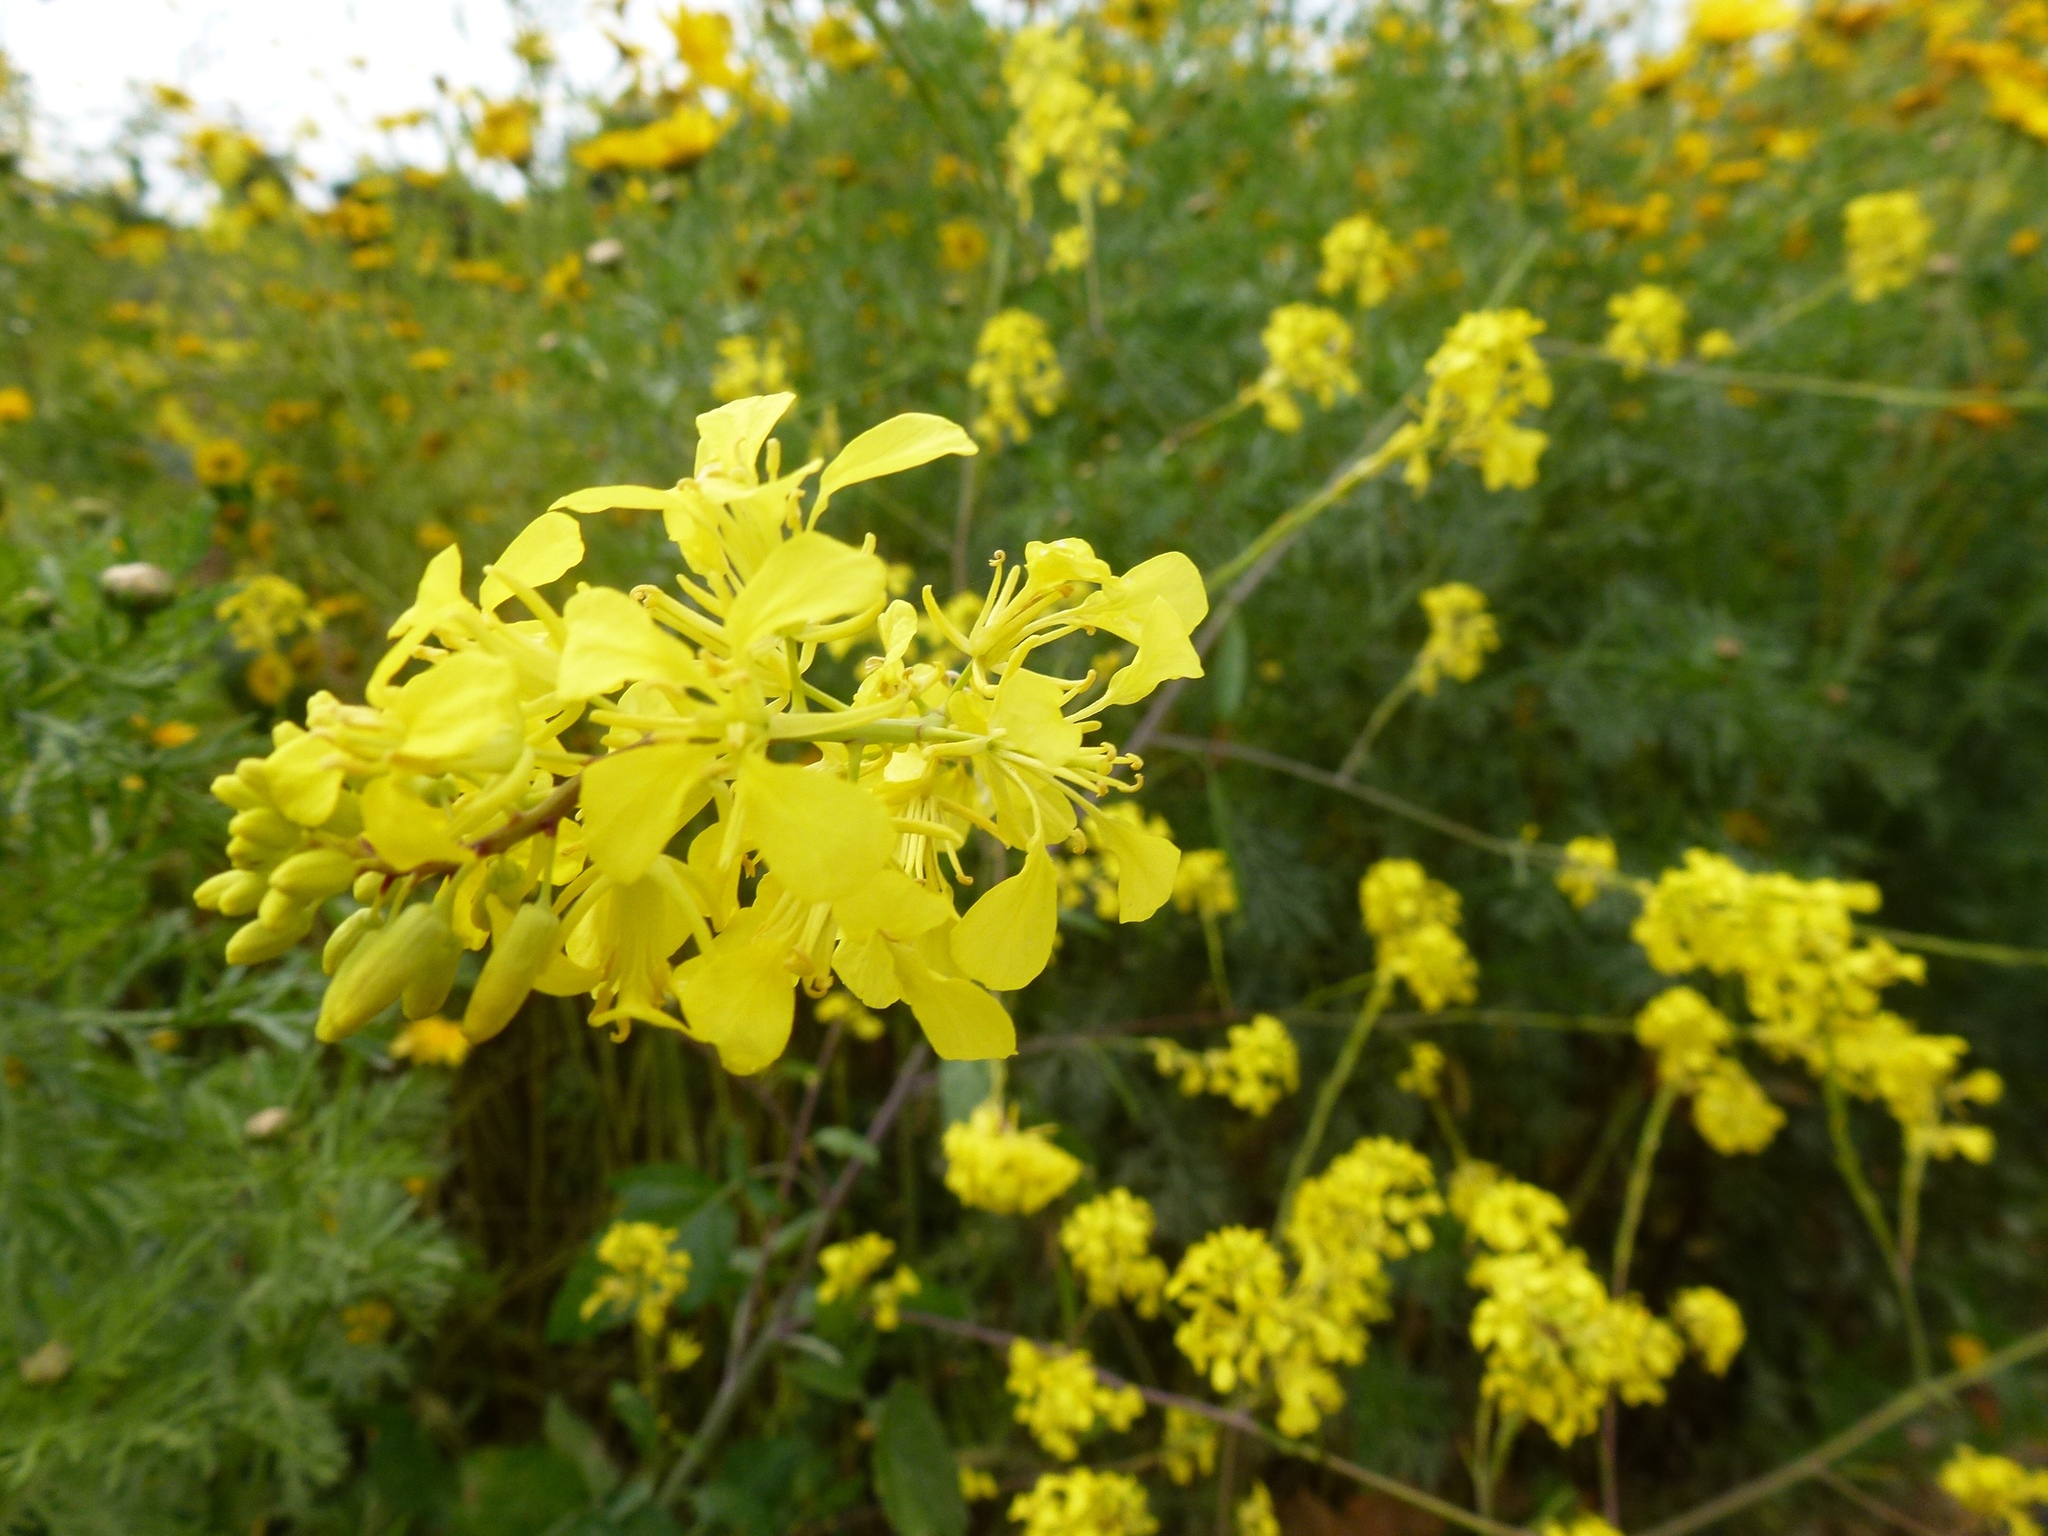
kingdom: Plantae
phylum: Tracheophyta
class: Magnoliopsida
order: Brassicales
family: Brassicaceae
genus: Brassica
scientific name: Brassica nigra
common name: Black mustard
